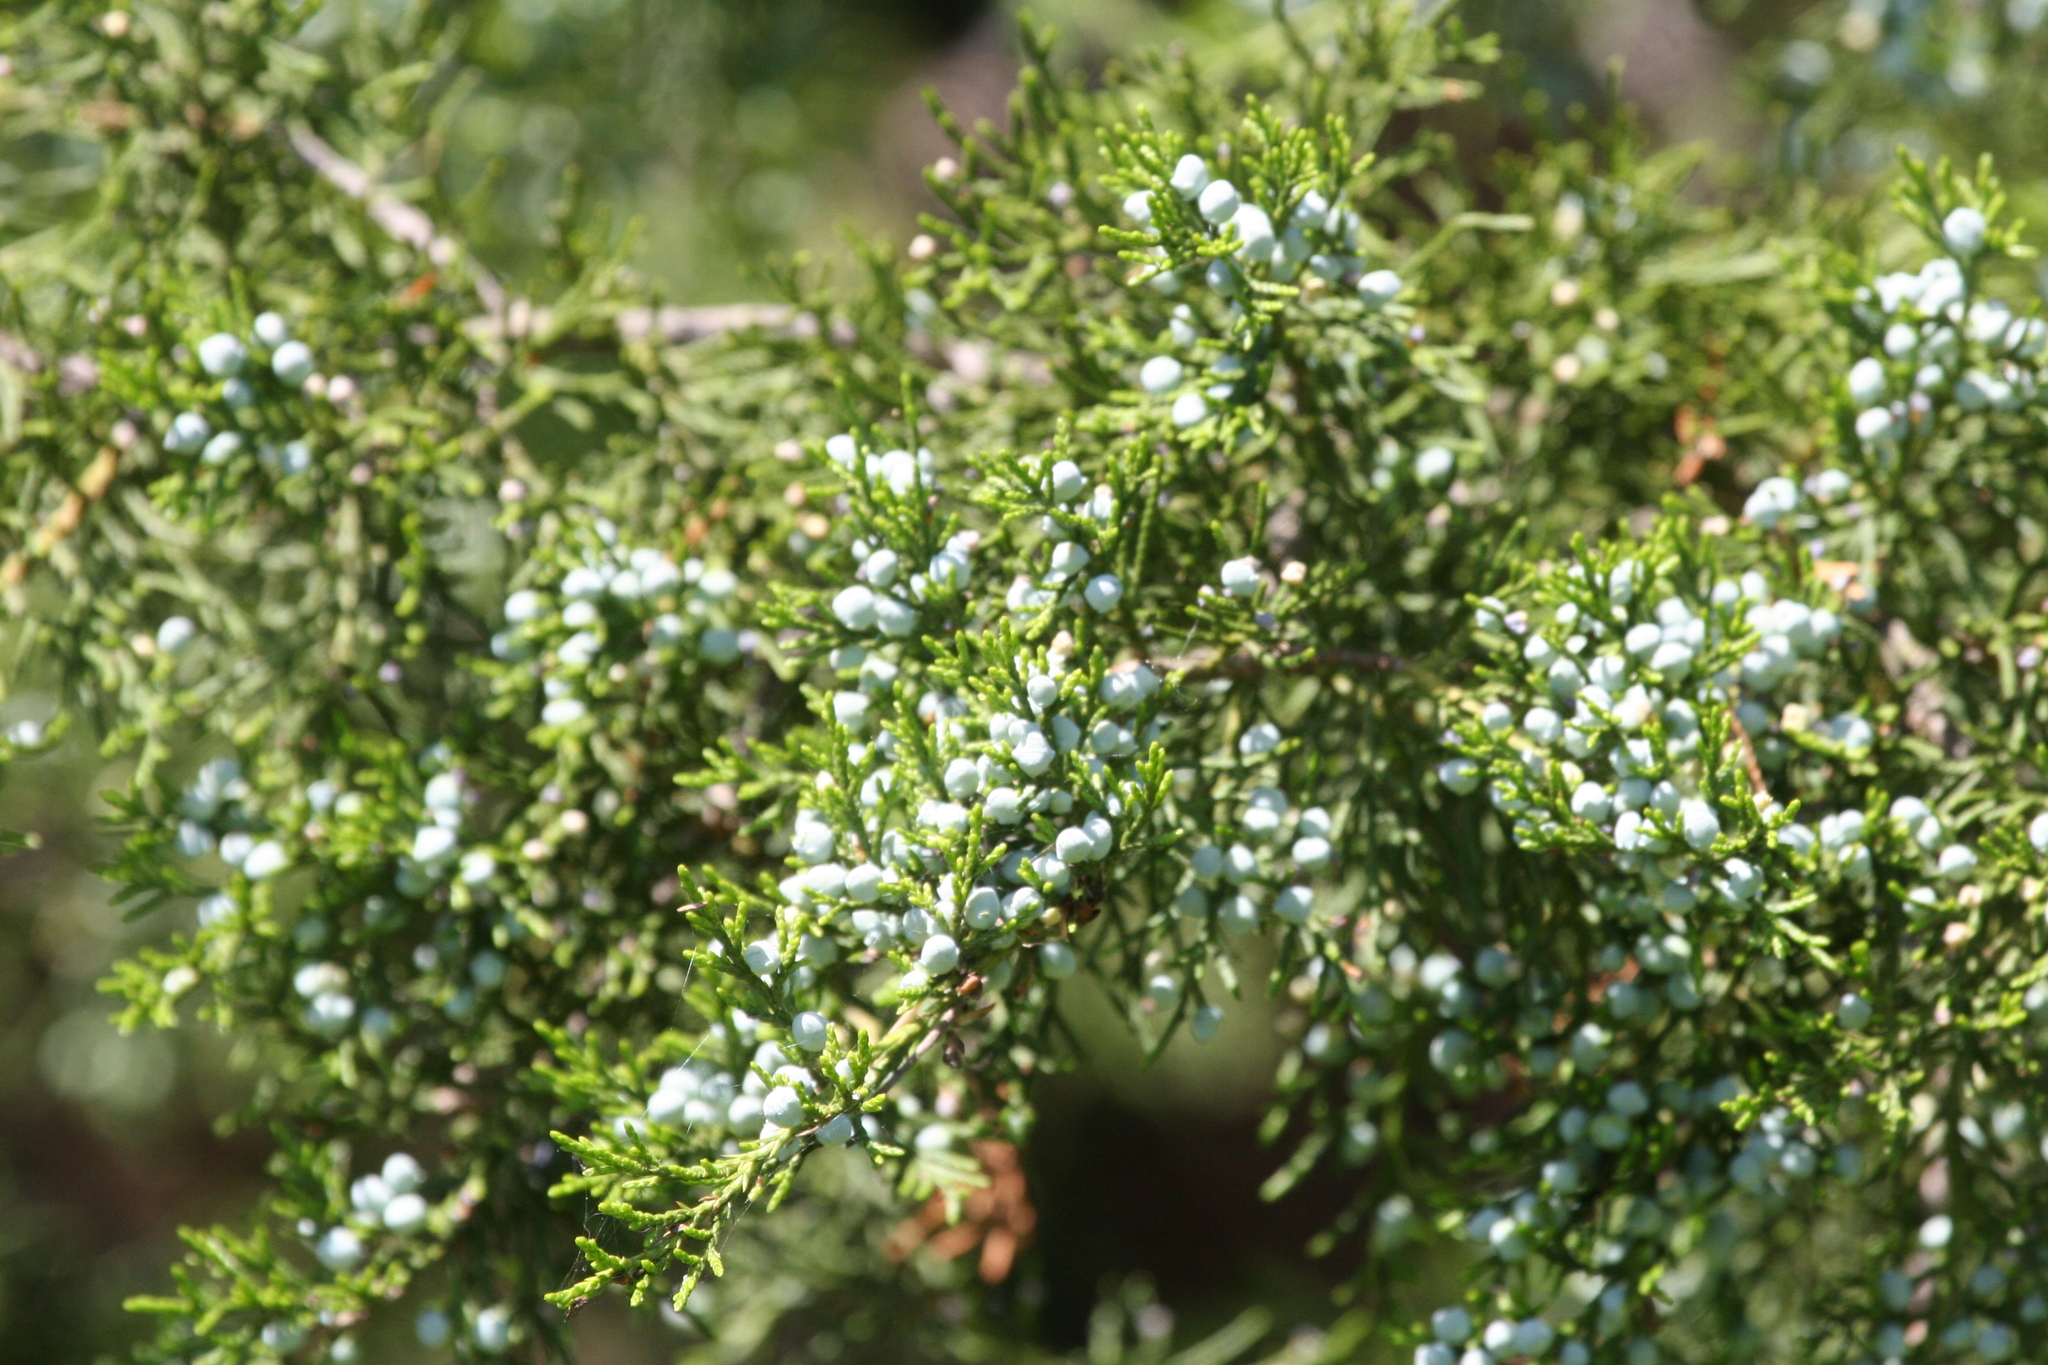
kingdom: Plantae
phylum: Tracheophyta
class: Pinopsida
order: Pinales
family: Cupressaceae
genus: Juniperus
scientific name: Juniperus virginiana
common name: Red juniper
